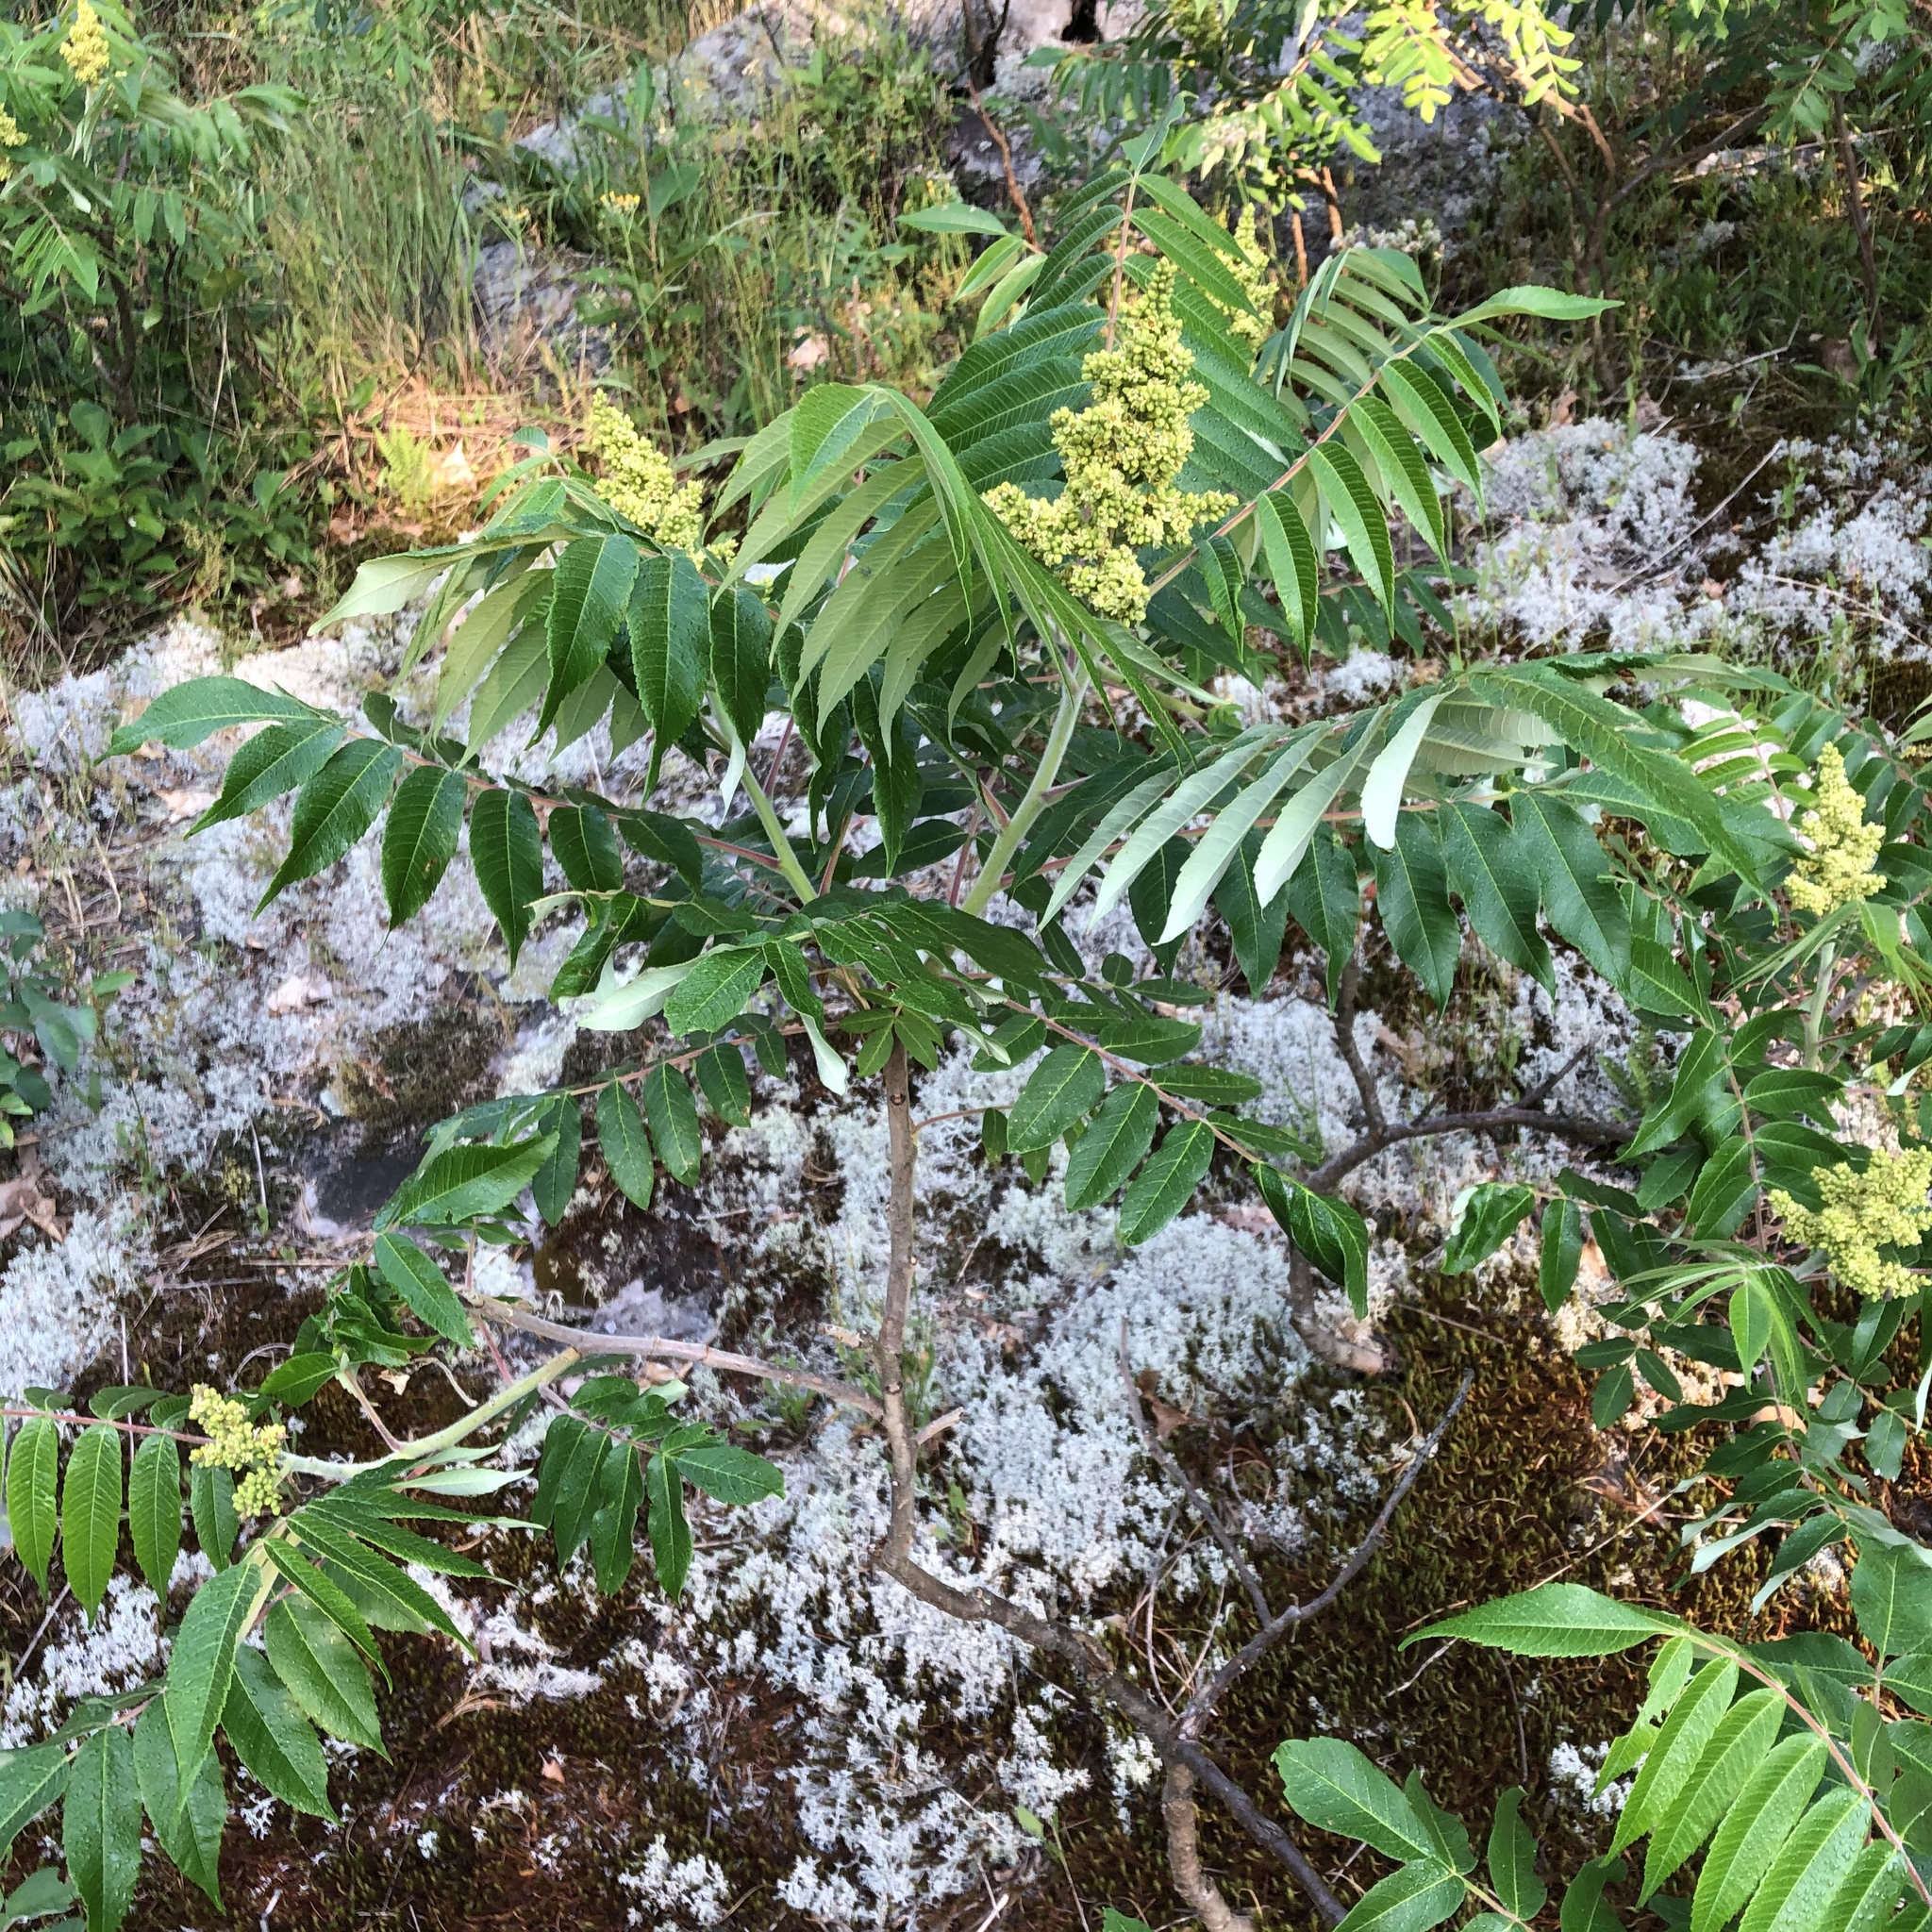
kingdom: Plantae
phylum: Tracheophyta
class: Magnoliopsida
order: Sapindales
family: Anacardiaceae
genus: Rhus
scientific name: Rhus typhina
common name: Staghorn sumac
